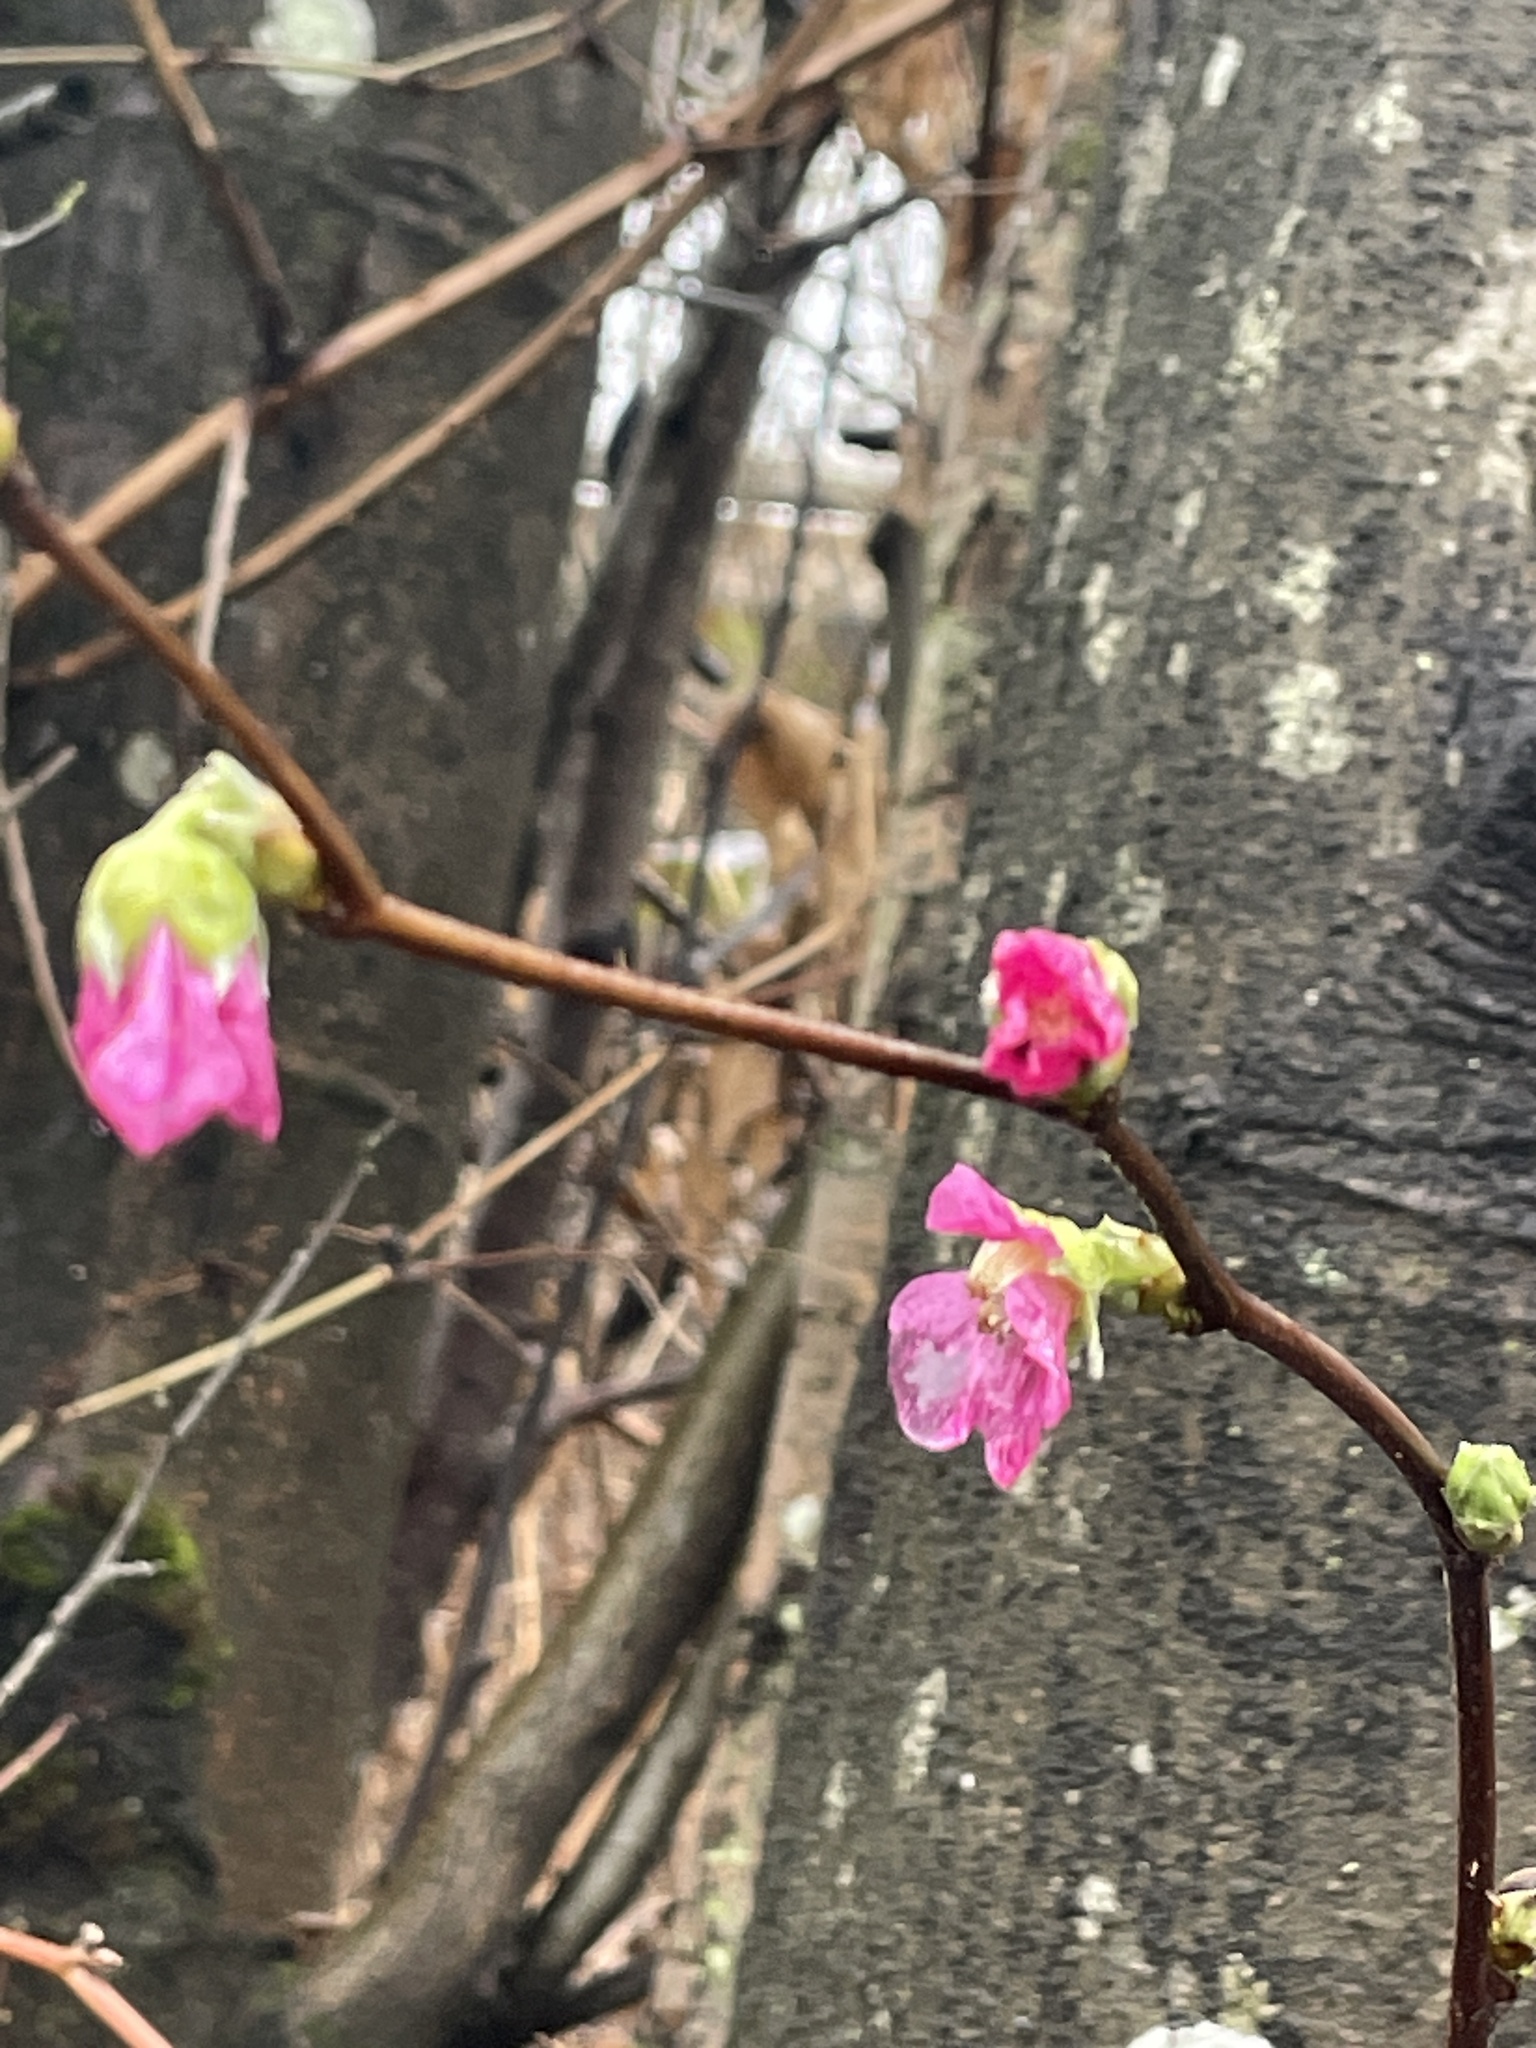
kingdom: Plantae
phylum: Tracheophyta
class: Magnoliopsida
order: Rosales
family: Rosaceae
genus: Rubus
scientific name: Rubus spectabilis
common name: Salmonberry
